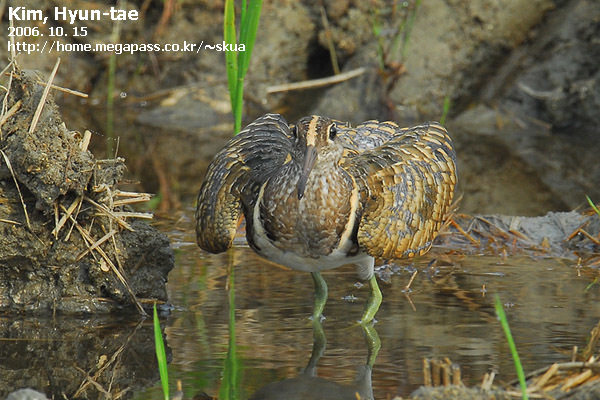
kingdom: Animalia
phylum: Chordata
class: Aves
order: Charadriiformes
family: Rostratulidae
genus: Rostratula
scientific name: Rostratula benghalensis
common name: Greater painted-snipe
